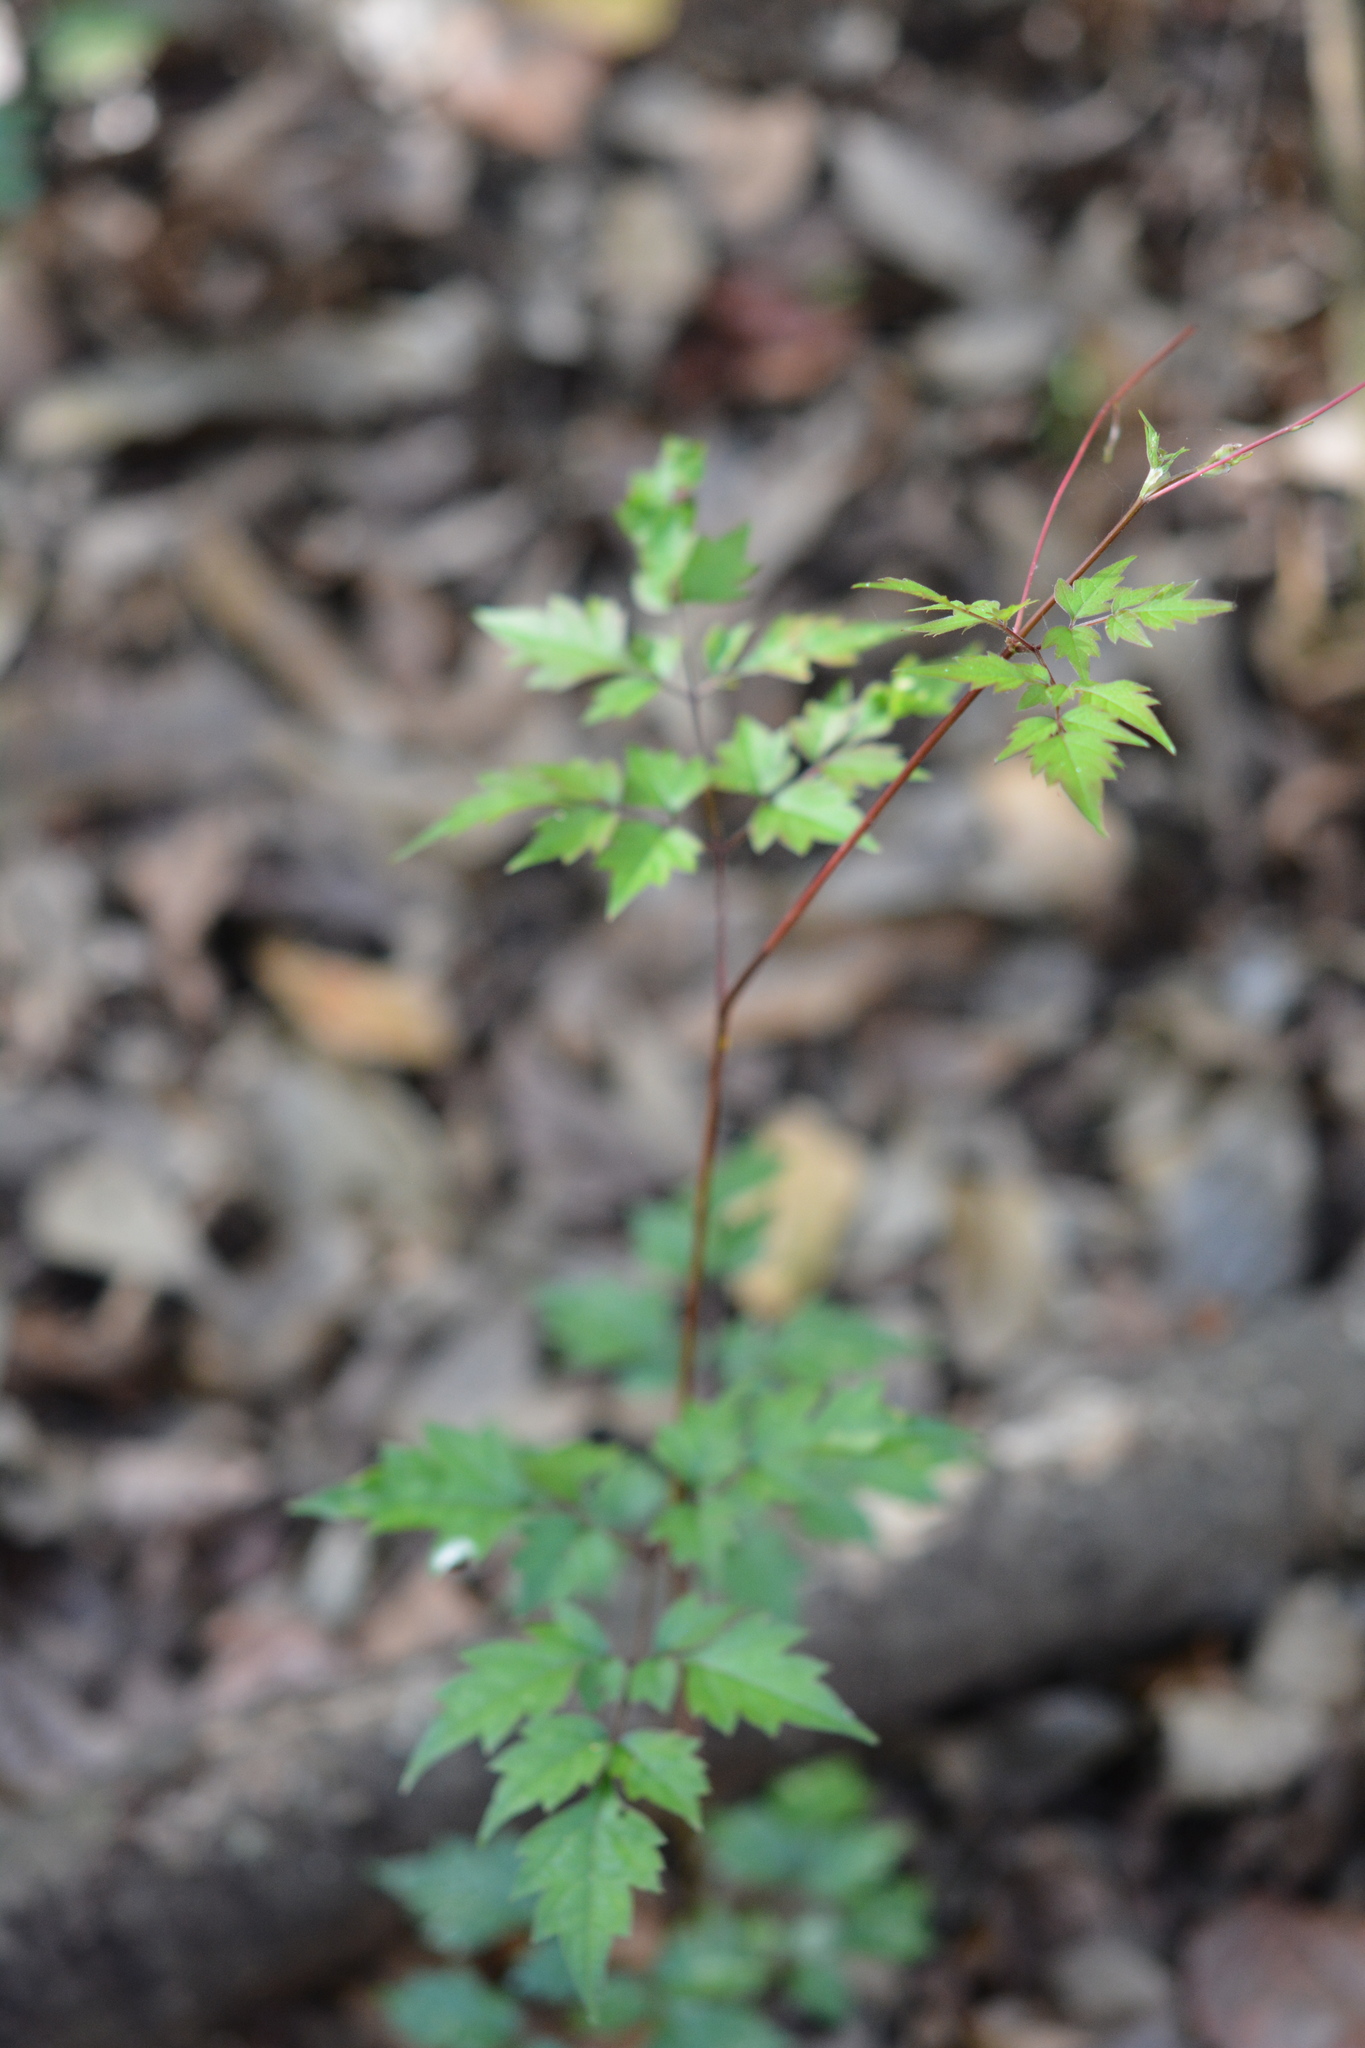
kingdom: Plantae
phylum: Tracheophyta
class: Magnoliopsida
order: Vitales
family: Vitaceae
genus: Nekemias
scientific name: Nekemias arborea
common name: Peppervine
